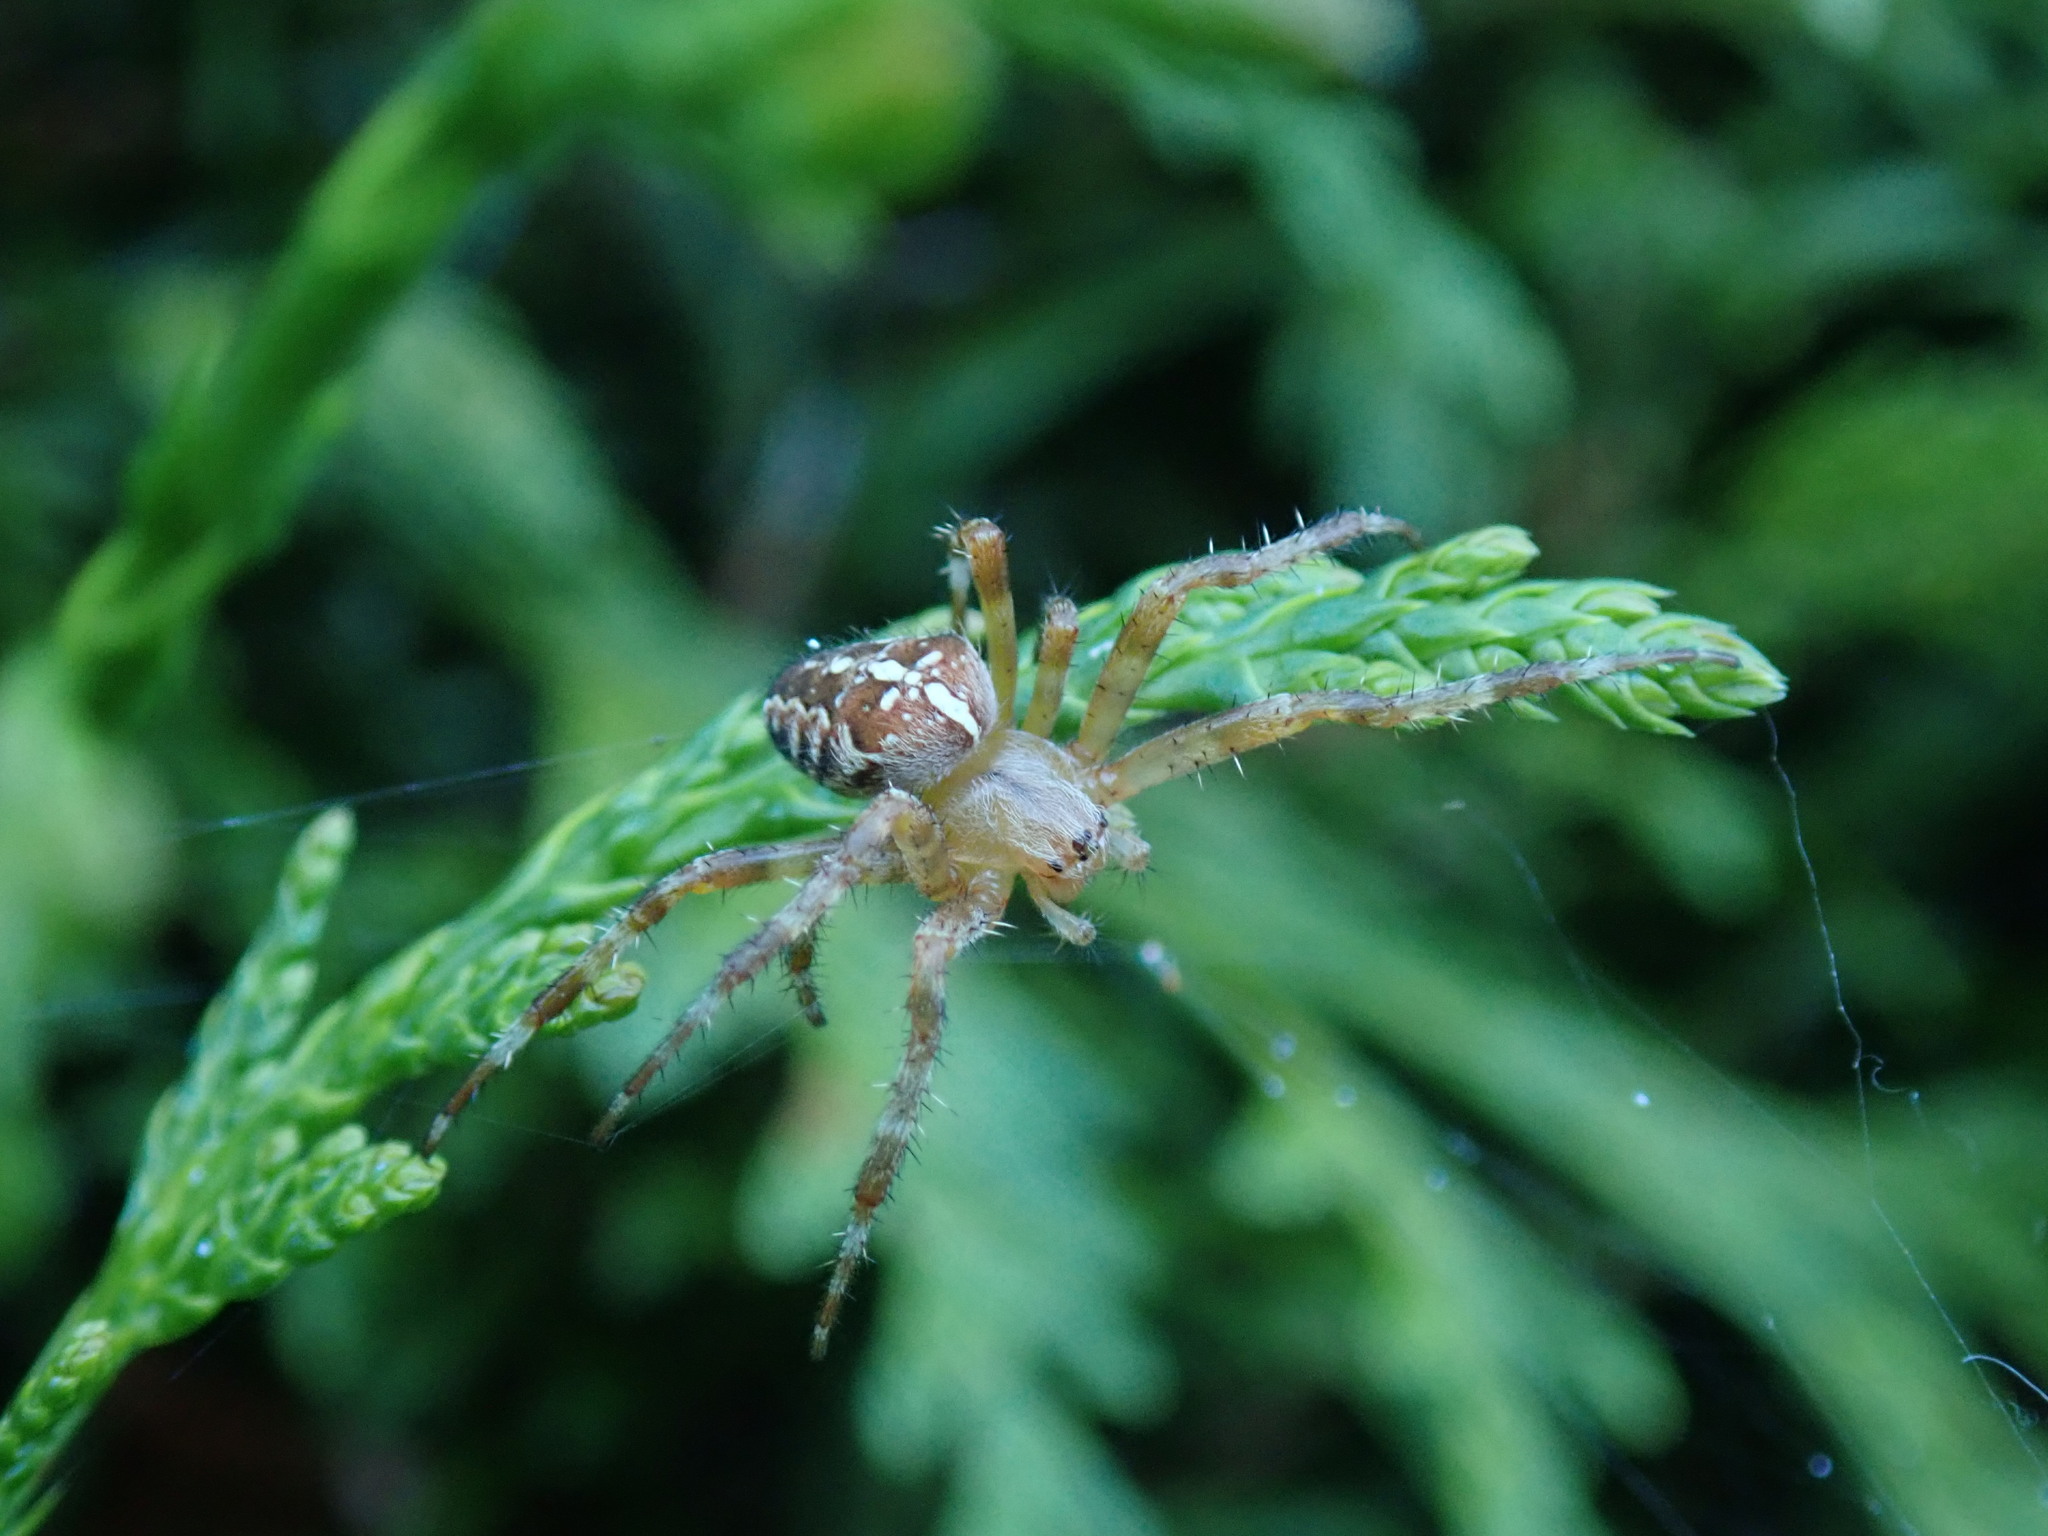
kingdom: Animalia
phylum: Arthropoda
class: Arachnida
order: Araneae
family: Araneidae
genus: Araneus
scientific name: Araneus diadematus
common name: Cross orbweaver
